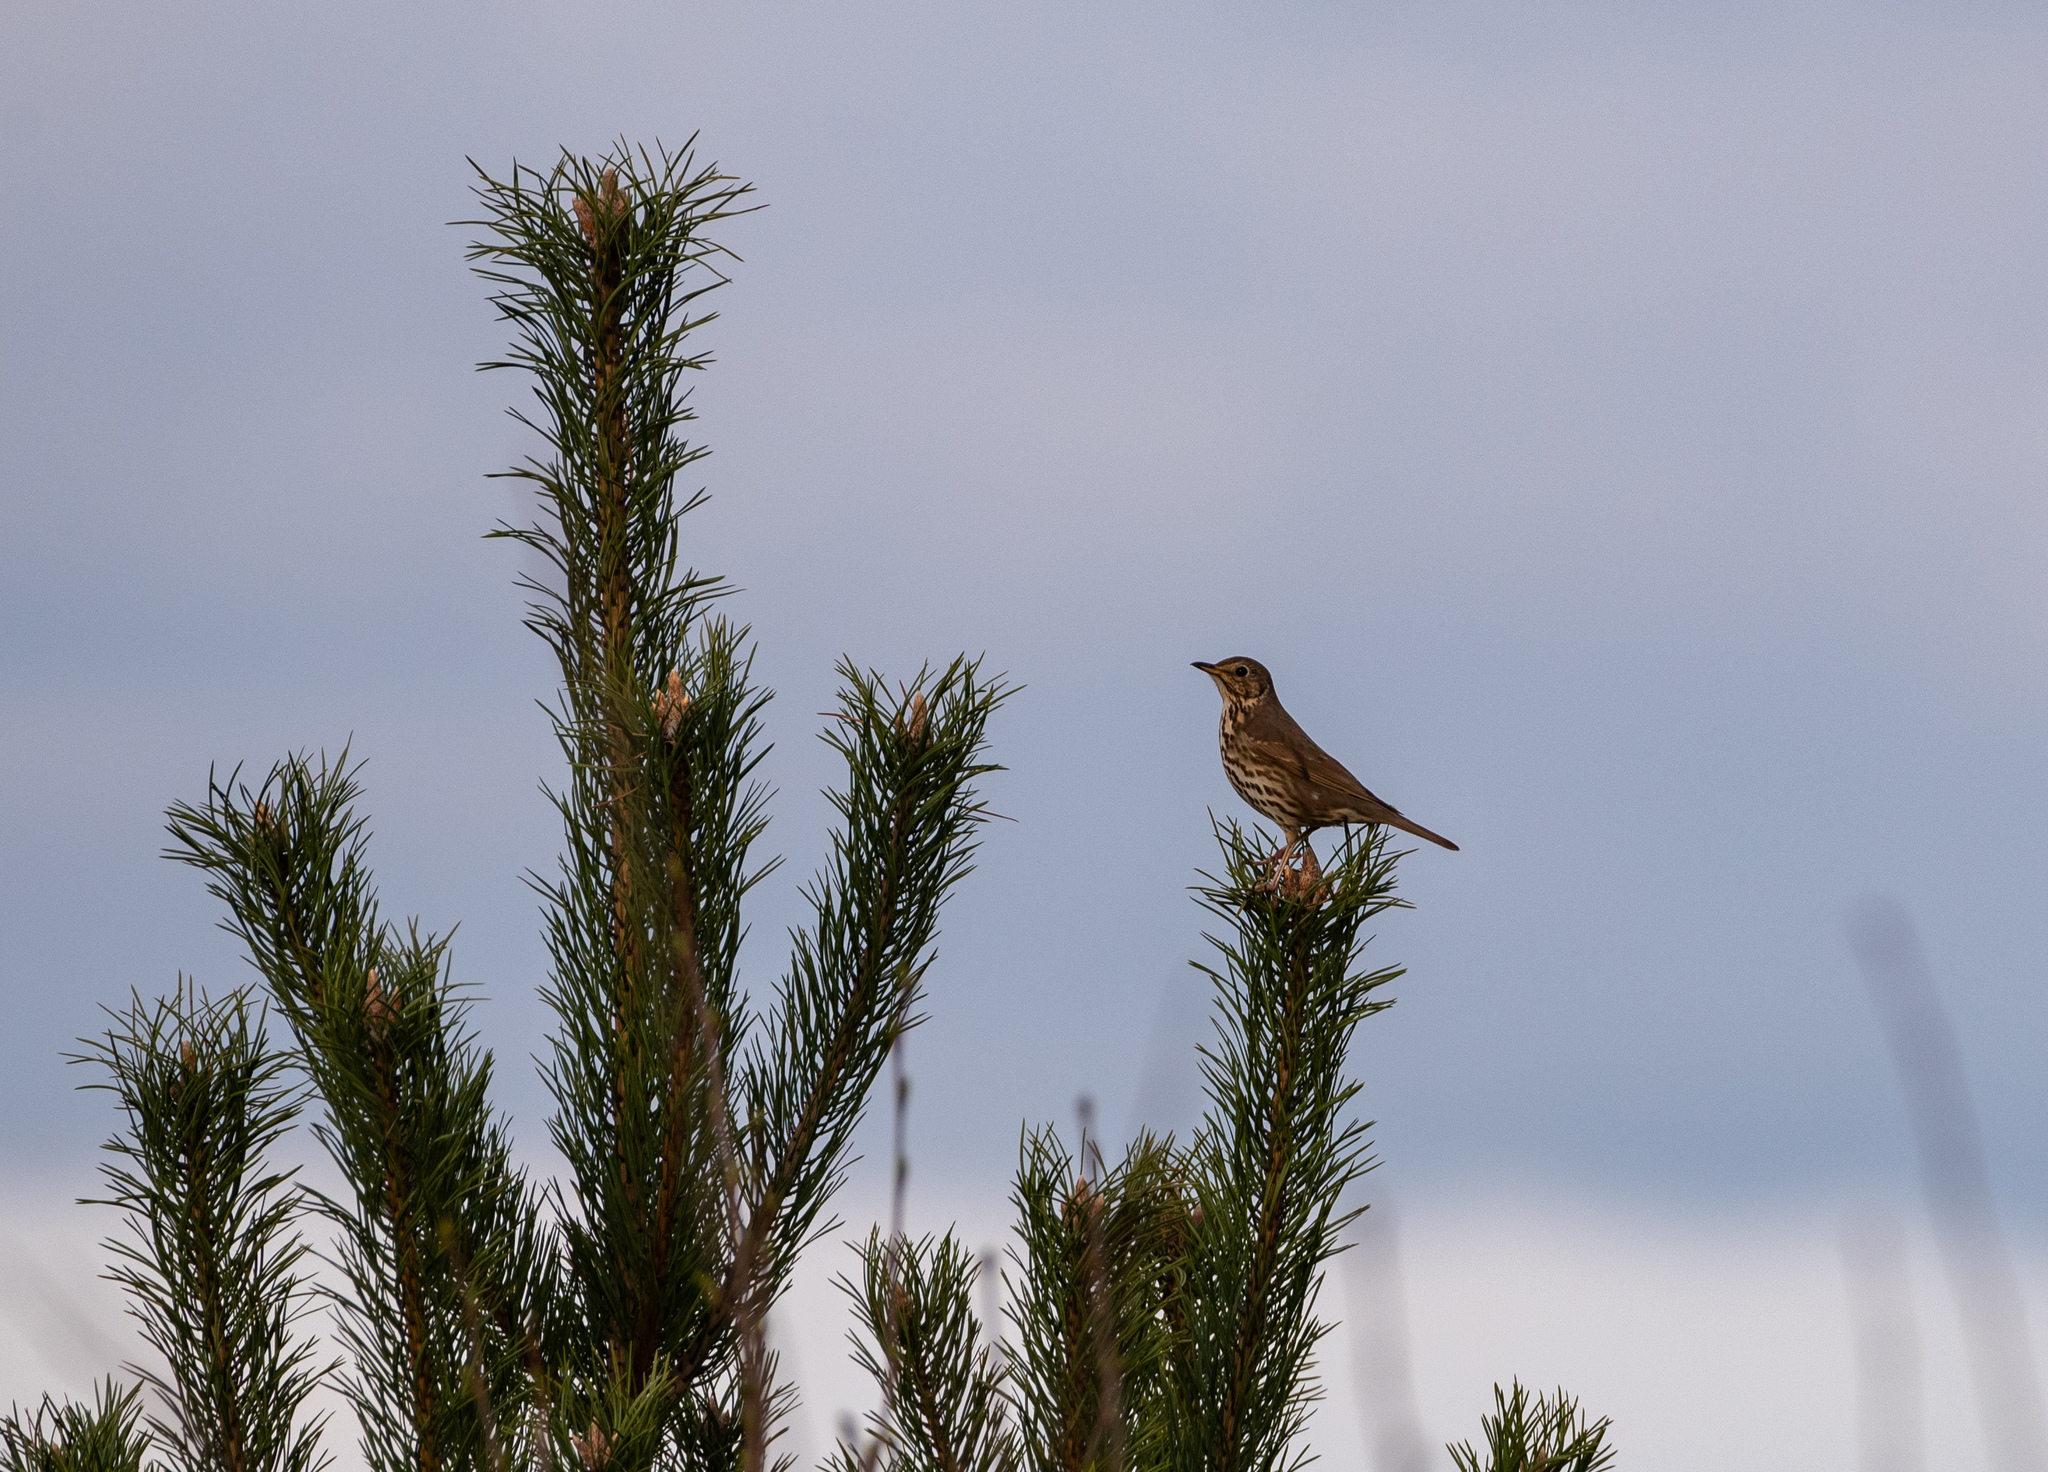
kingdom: Animalia
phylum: Chordata
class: Aves
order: Passeriformes
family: Turdidae
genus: Turdus
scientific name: Turdus philomelos
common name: Song thrush
